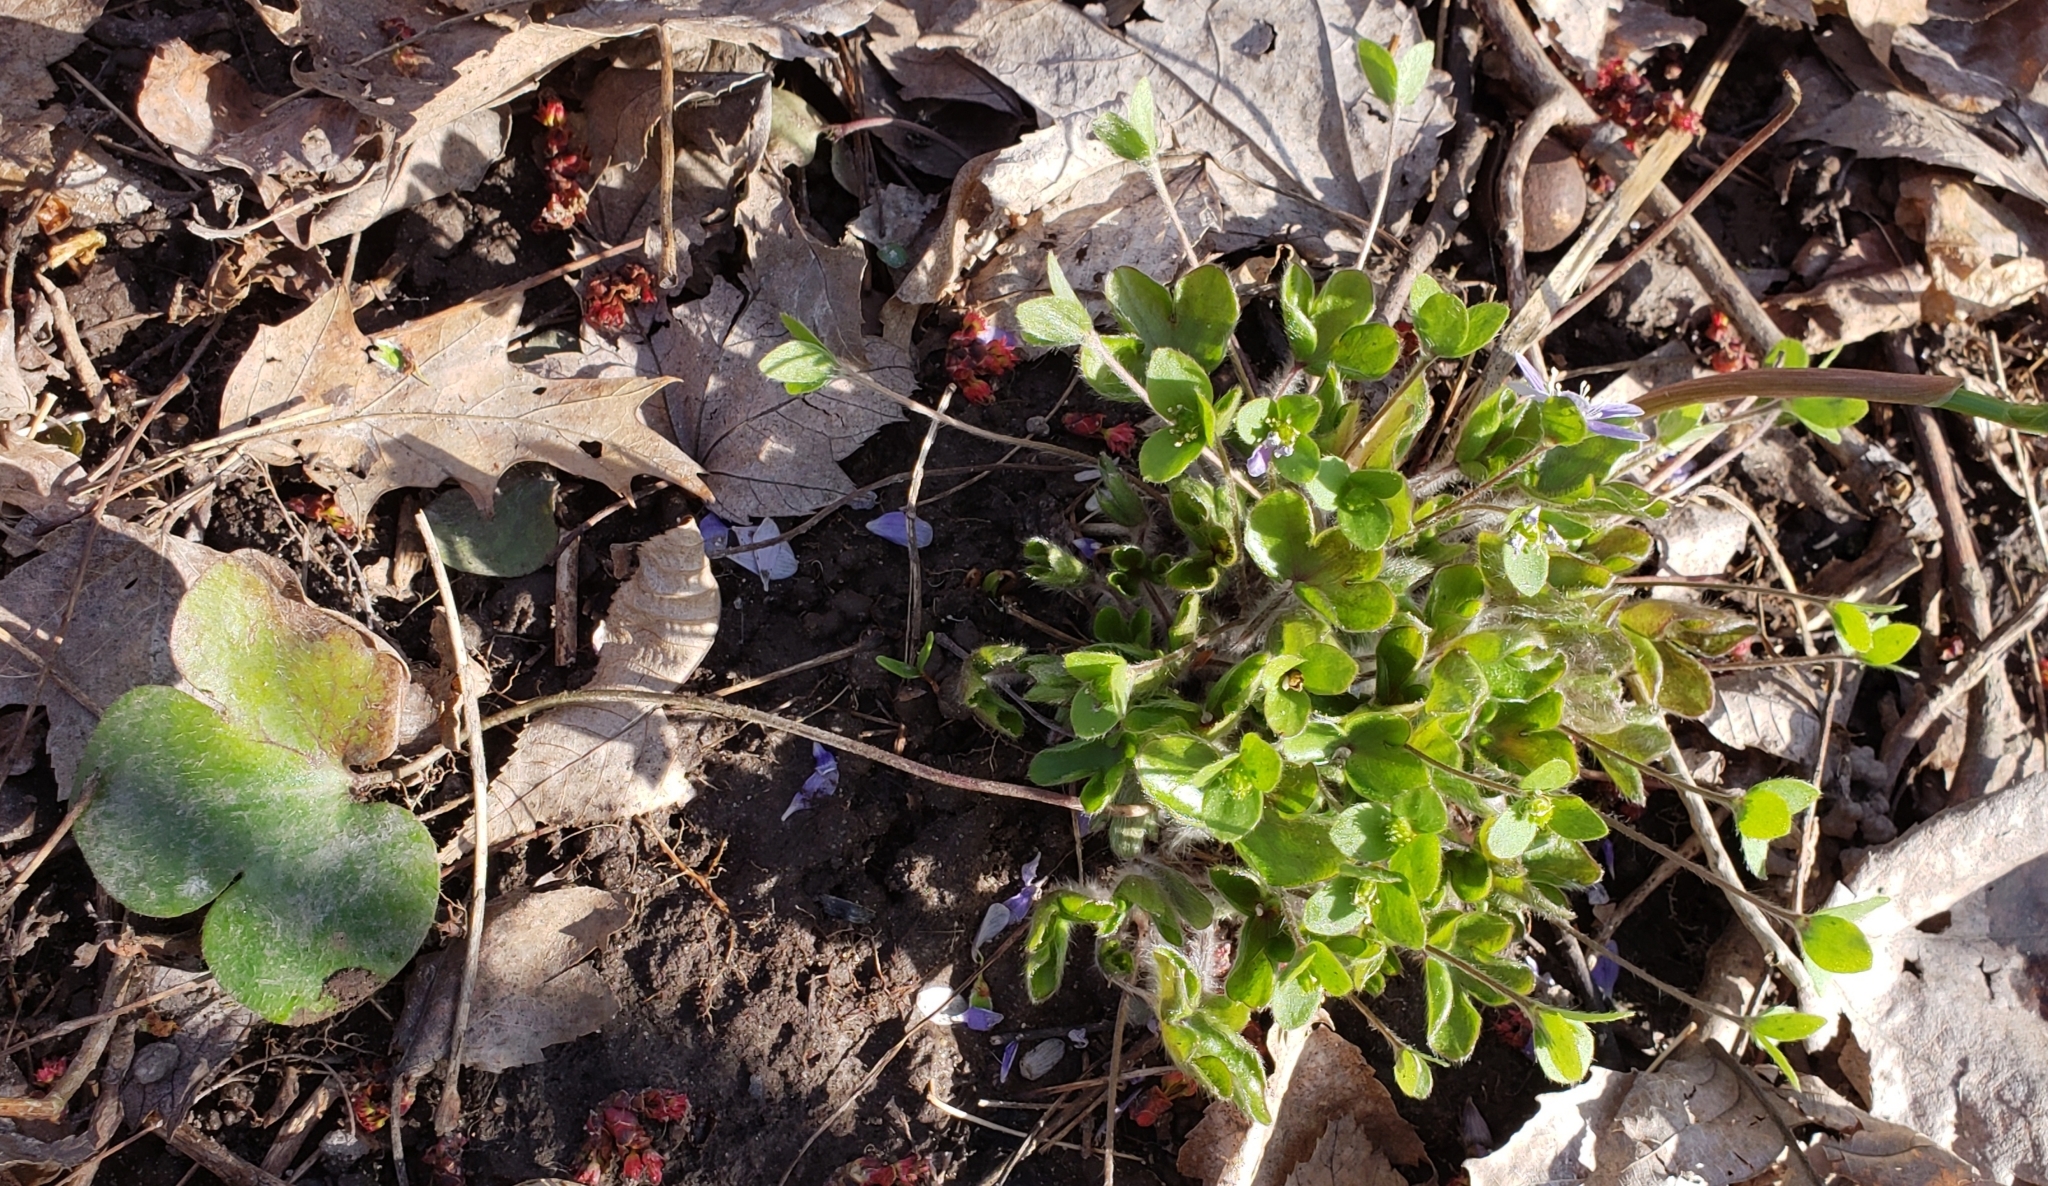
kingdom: Plantae
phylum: Tracheophyta
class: Magnoliopsida
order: Ranunculales
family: Ranunculaceae
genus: Hepatica
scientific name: Hepatica americana
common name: American hepatica
